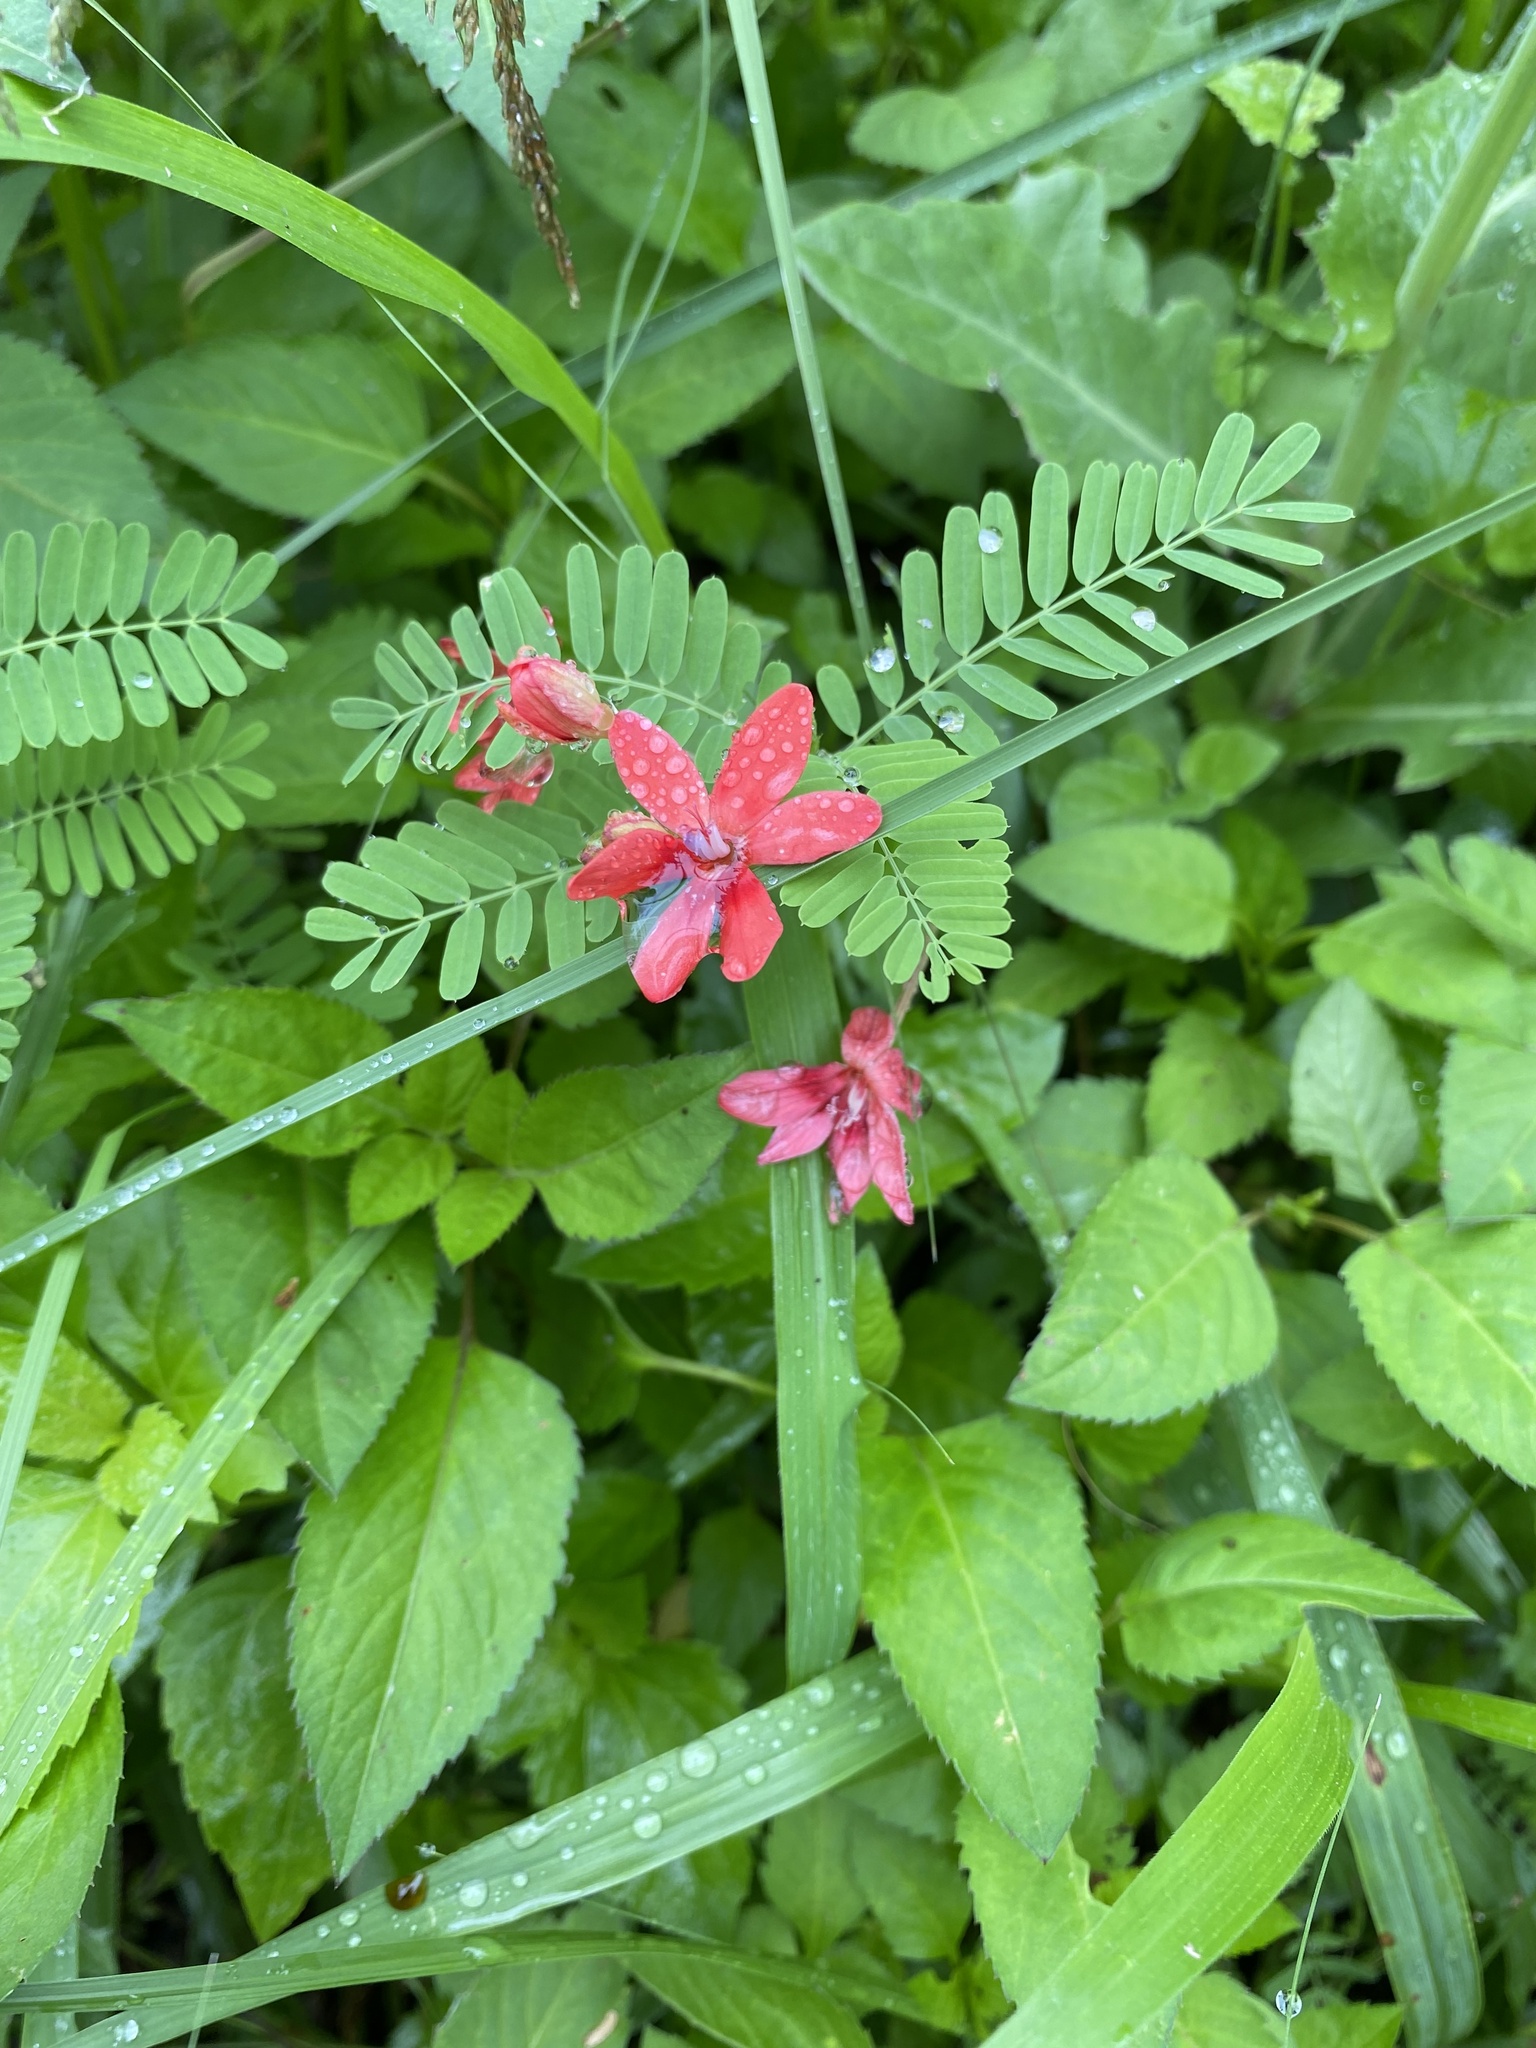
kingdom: Plantae
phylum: Tracheophyta
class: Liliopsida
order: Asparagales
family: Iridaceae
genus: Freesia
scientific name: Freesia laxa
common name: False freesia
